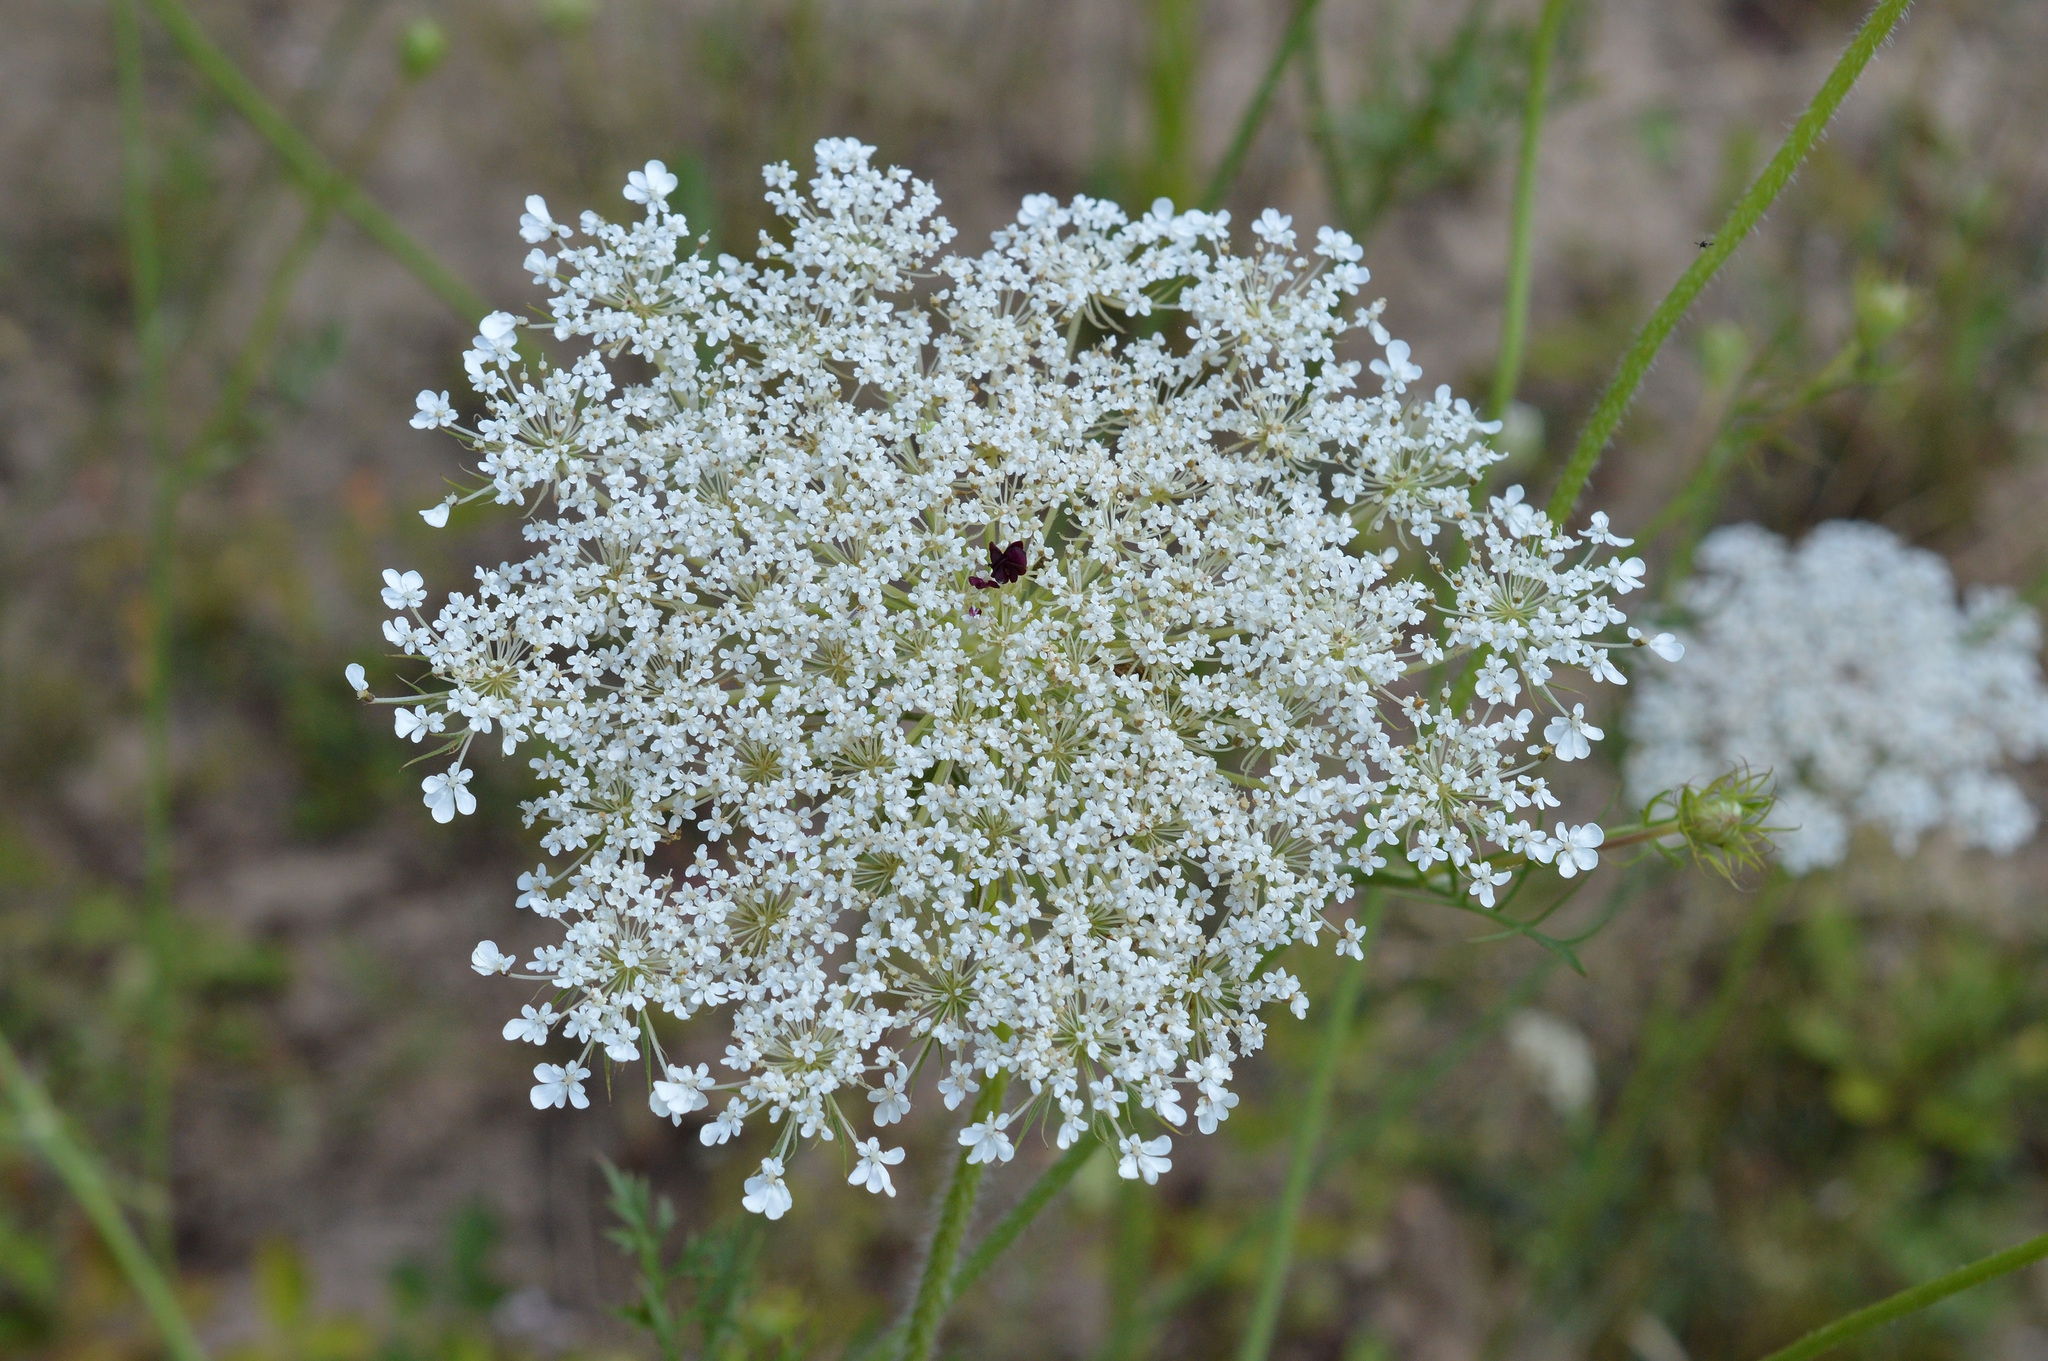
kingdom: Plantae
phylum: Tracheophyta
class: Magnoliopsida
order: Apiales
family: Apiaceae
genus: Daucus
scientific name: Daucus carota
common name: Wild carrot
